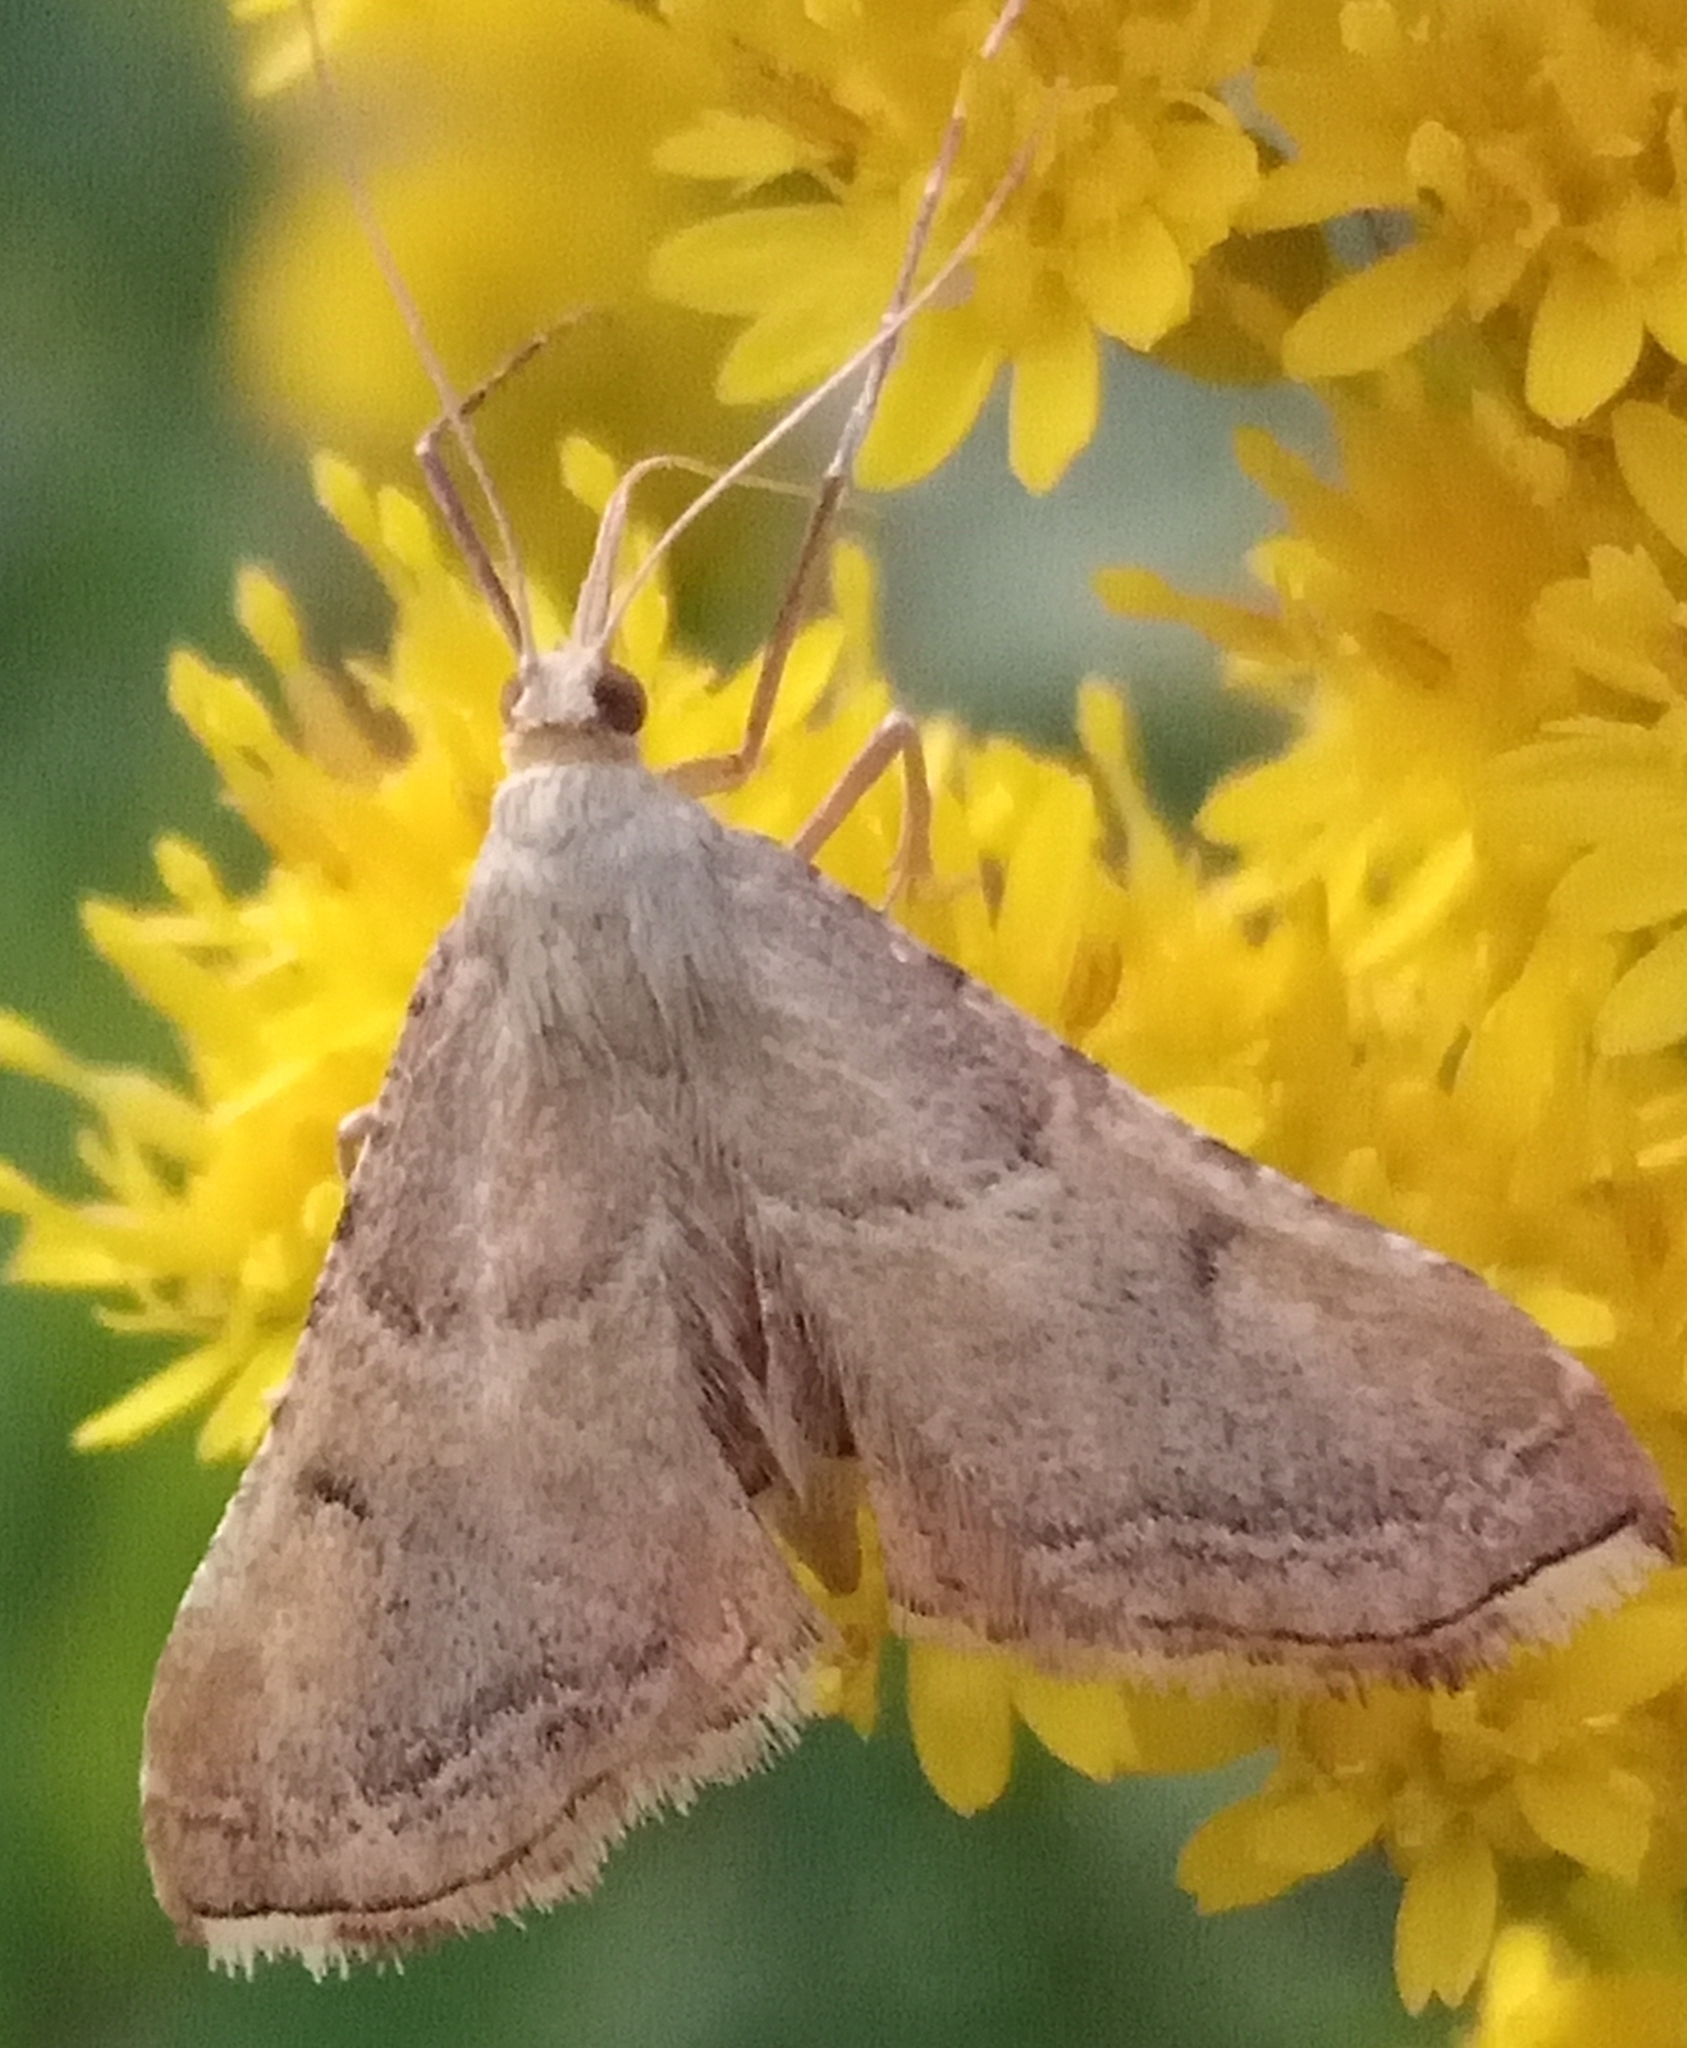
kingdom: Animalia
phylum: Arthropoda
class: Insecta
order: Lepidoptera
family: Pyralidae
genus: Endotricha
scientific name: Endotricha flammealis
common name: Rosy tabby
